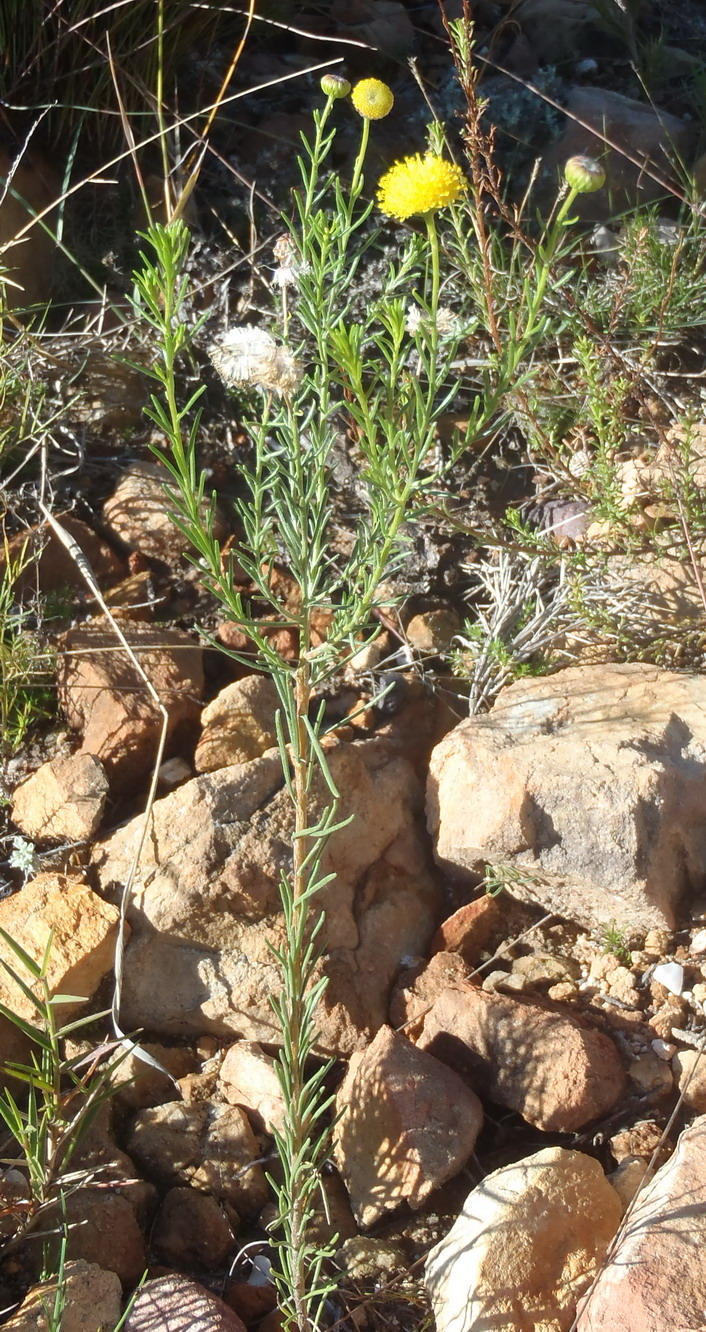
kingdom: Plantae
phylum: Tracheophyta
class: Magnoliopsida
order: Asterales
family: Asteraceae
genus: Chrysocoma
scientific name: Chrysocoma ciliata
